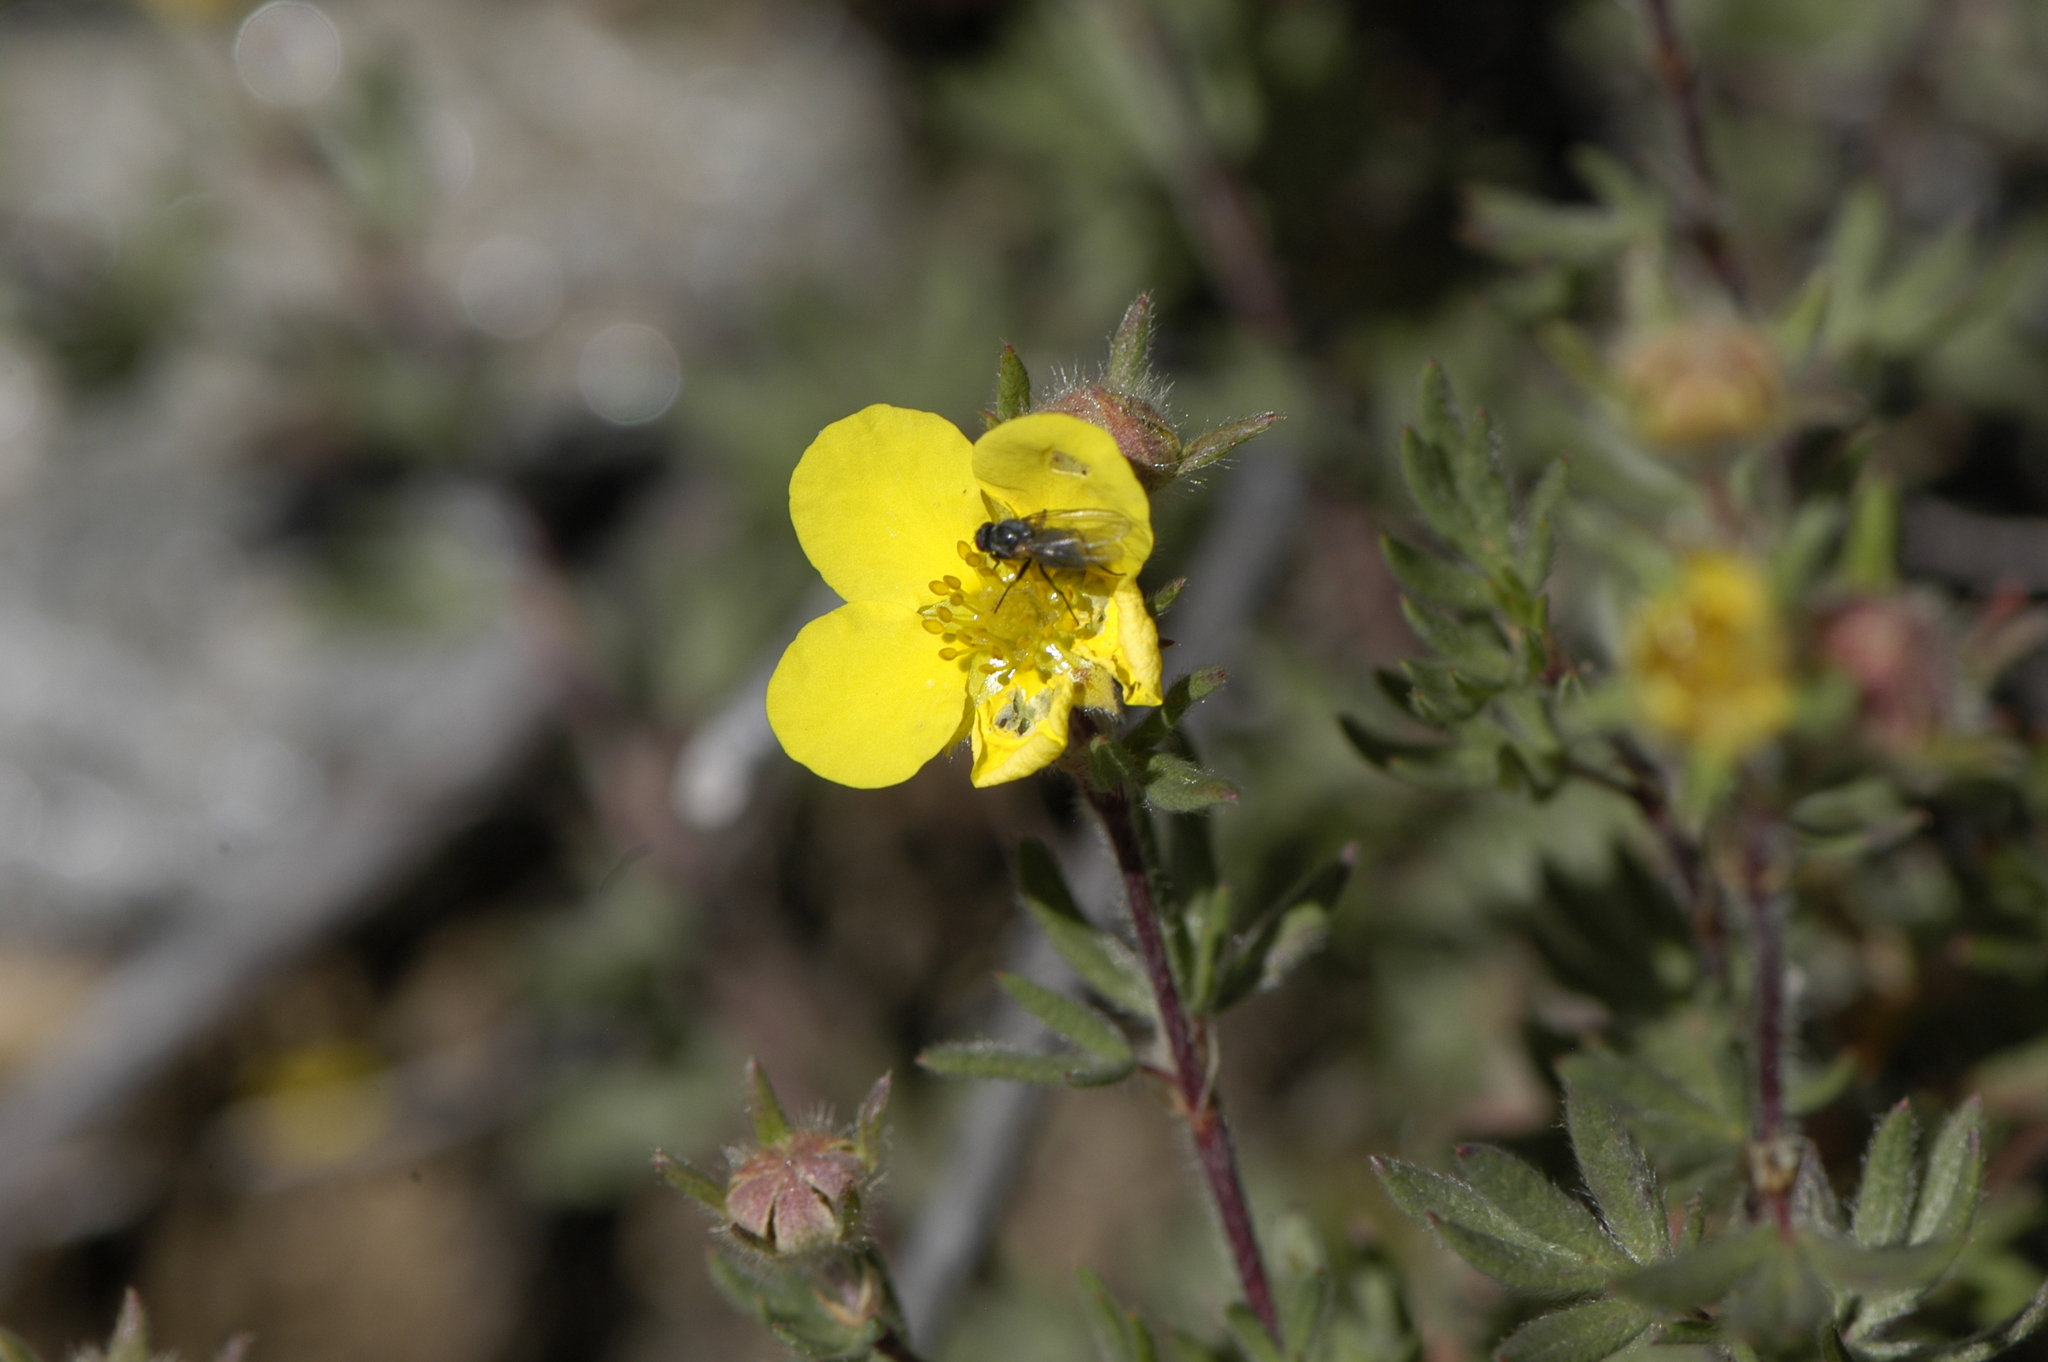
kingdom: Plantae
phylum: Tracheophyta
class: Magnoliopsida
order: Rosales
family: Rosaceae
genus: Dasiphora
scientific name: Dasiphora fruticosa
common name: Shrubby cinquefoil
